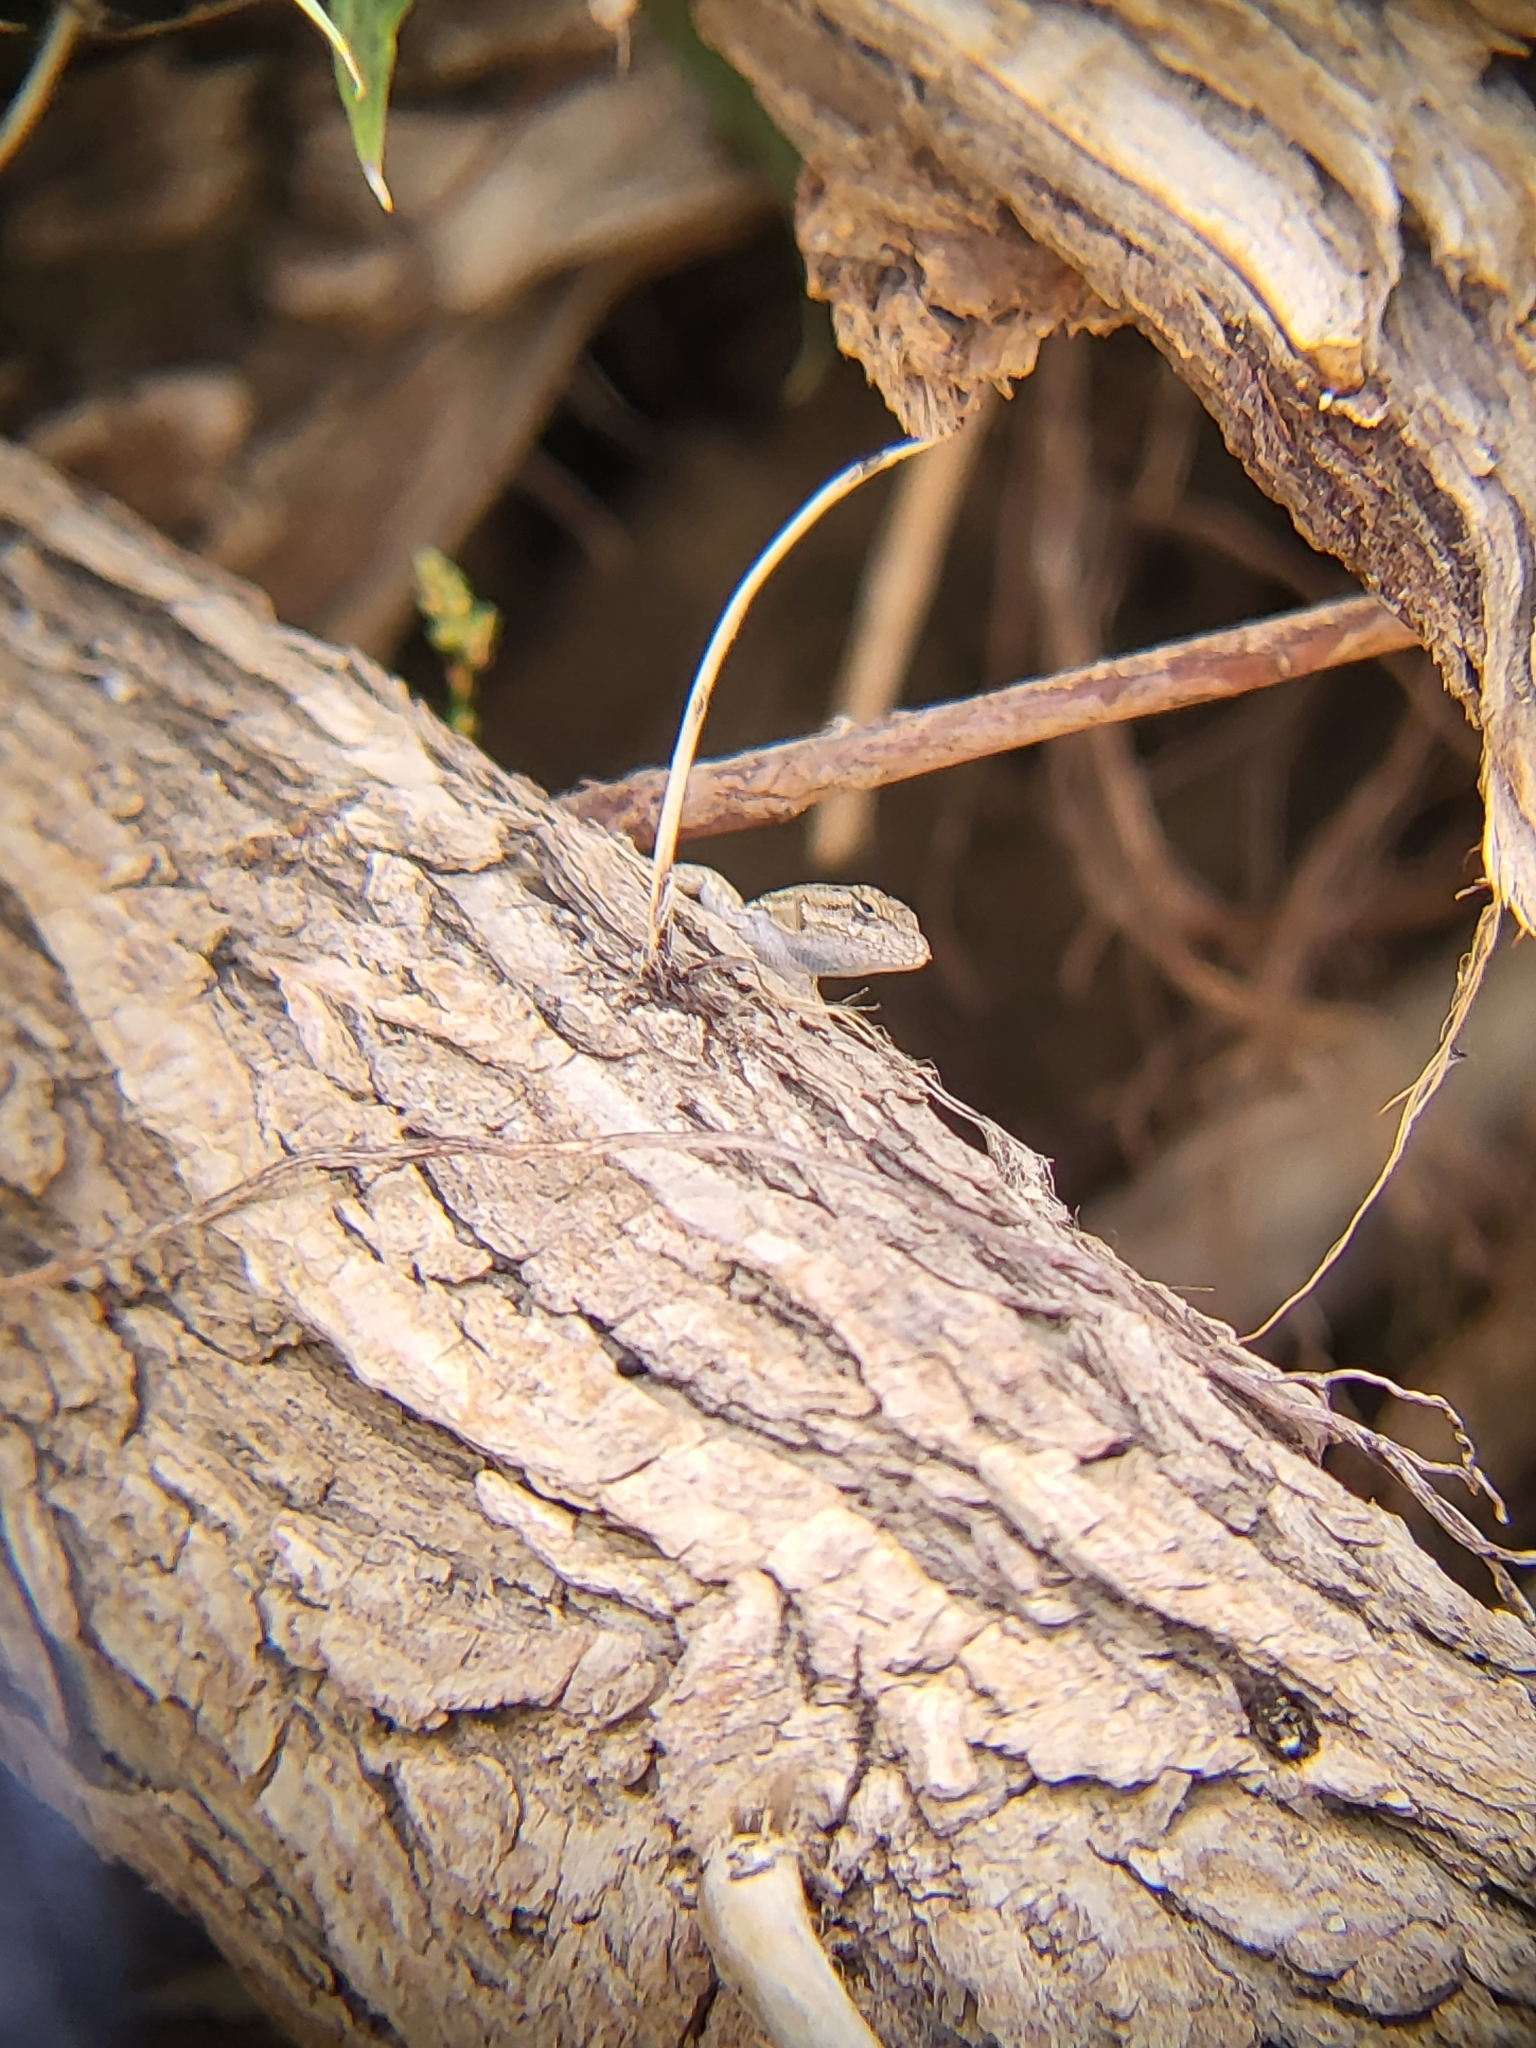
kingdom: Animalia
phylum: Chordata
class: Squamata
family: Phrynosomatidae
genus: Sceloporus
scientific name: Sceloporus occidentalis
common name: Western fence lizard
